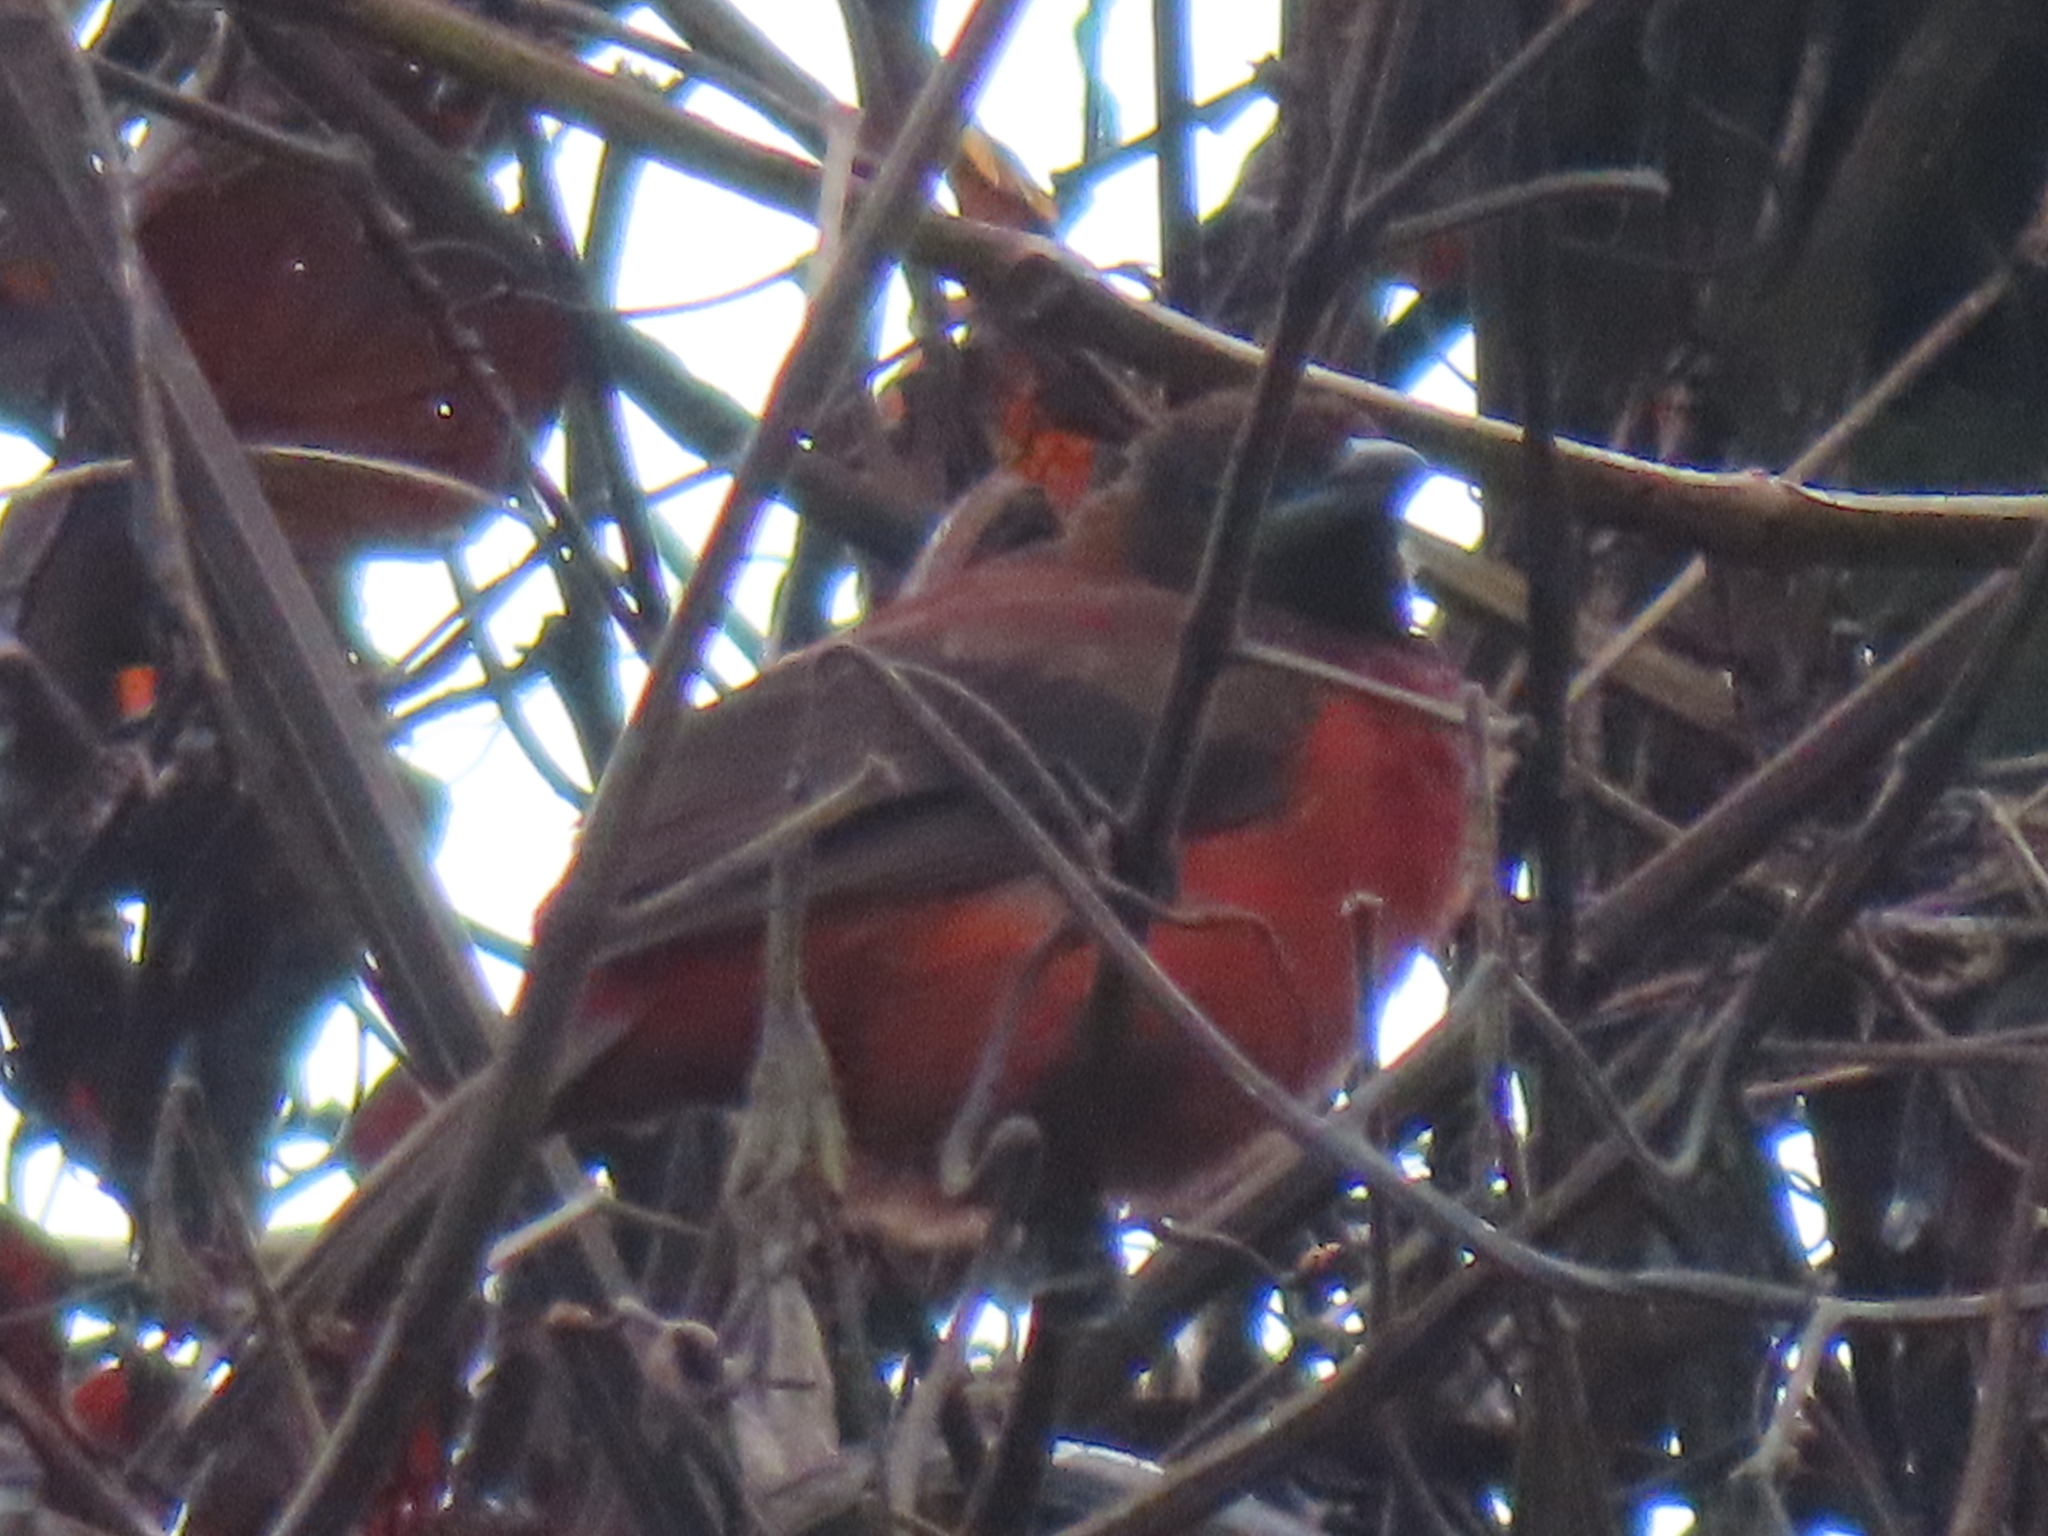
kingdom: Animalia
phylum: Chordata
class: Aves
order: Passeriformes
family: Thraupidae
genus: Ramphocelus
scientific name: Ramphocelus dimidiatus
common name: Crimson-backed tanager
